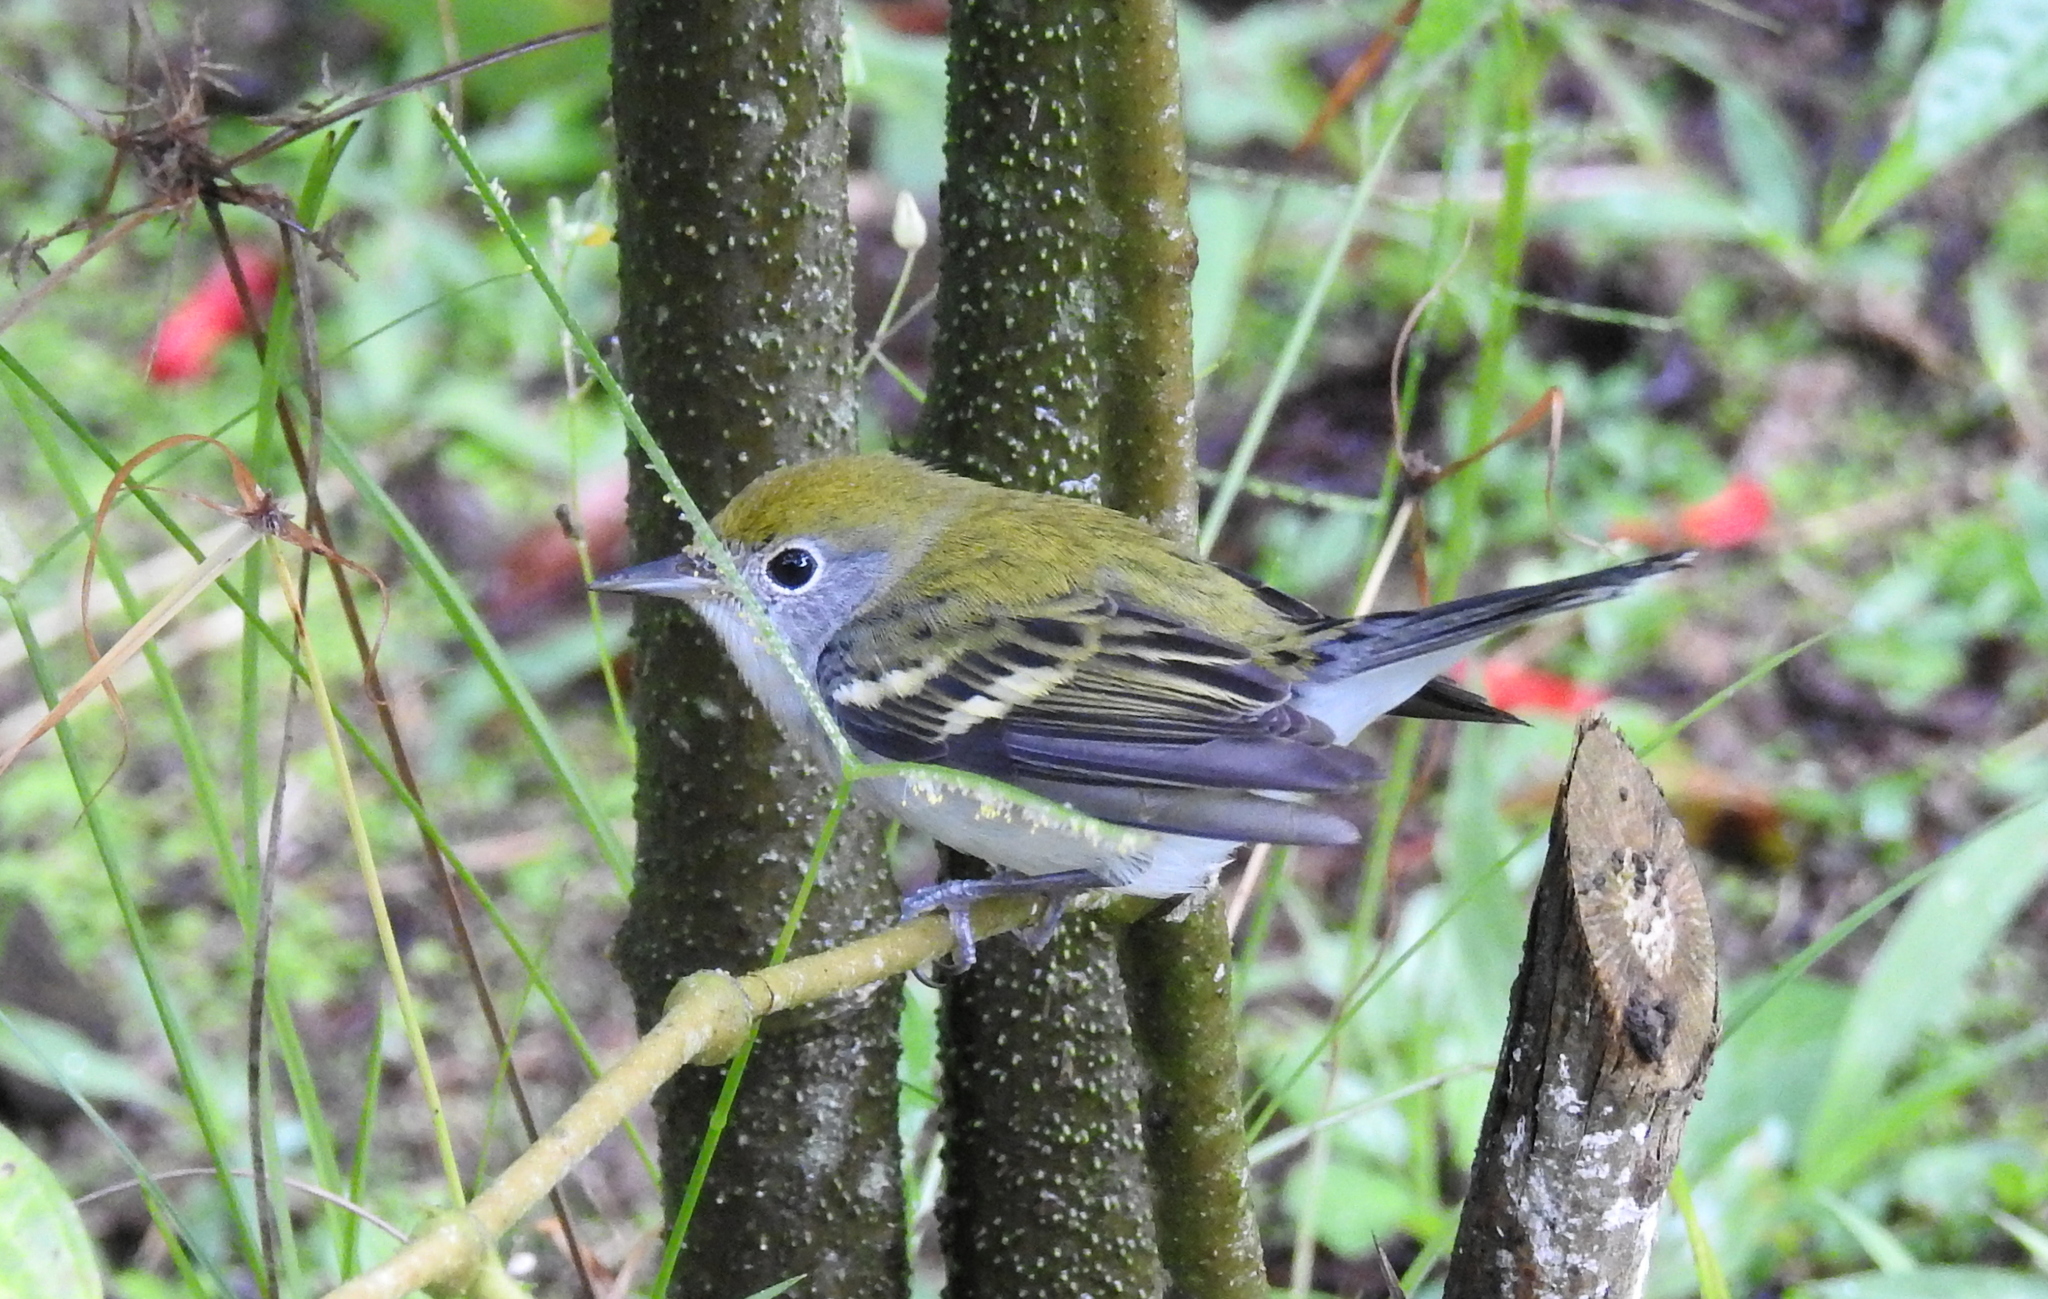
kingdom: Animalia
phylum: Chordata
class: Aves
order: Passeriformes
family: Parulidae
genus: Setophaga
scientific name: Setophaga pensylvanica
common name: Chestnut-sided warbler
